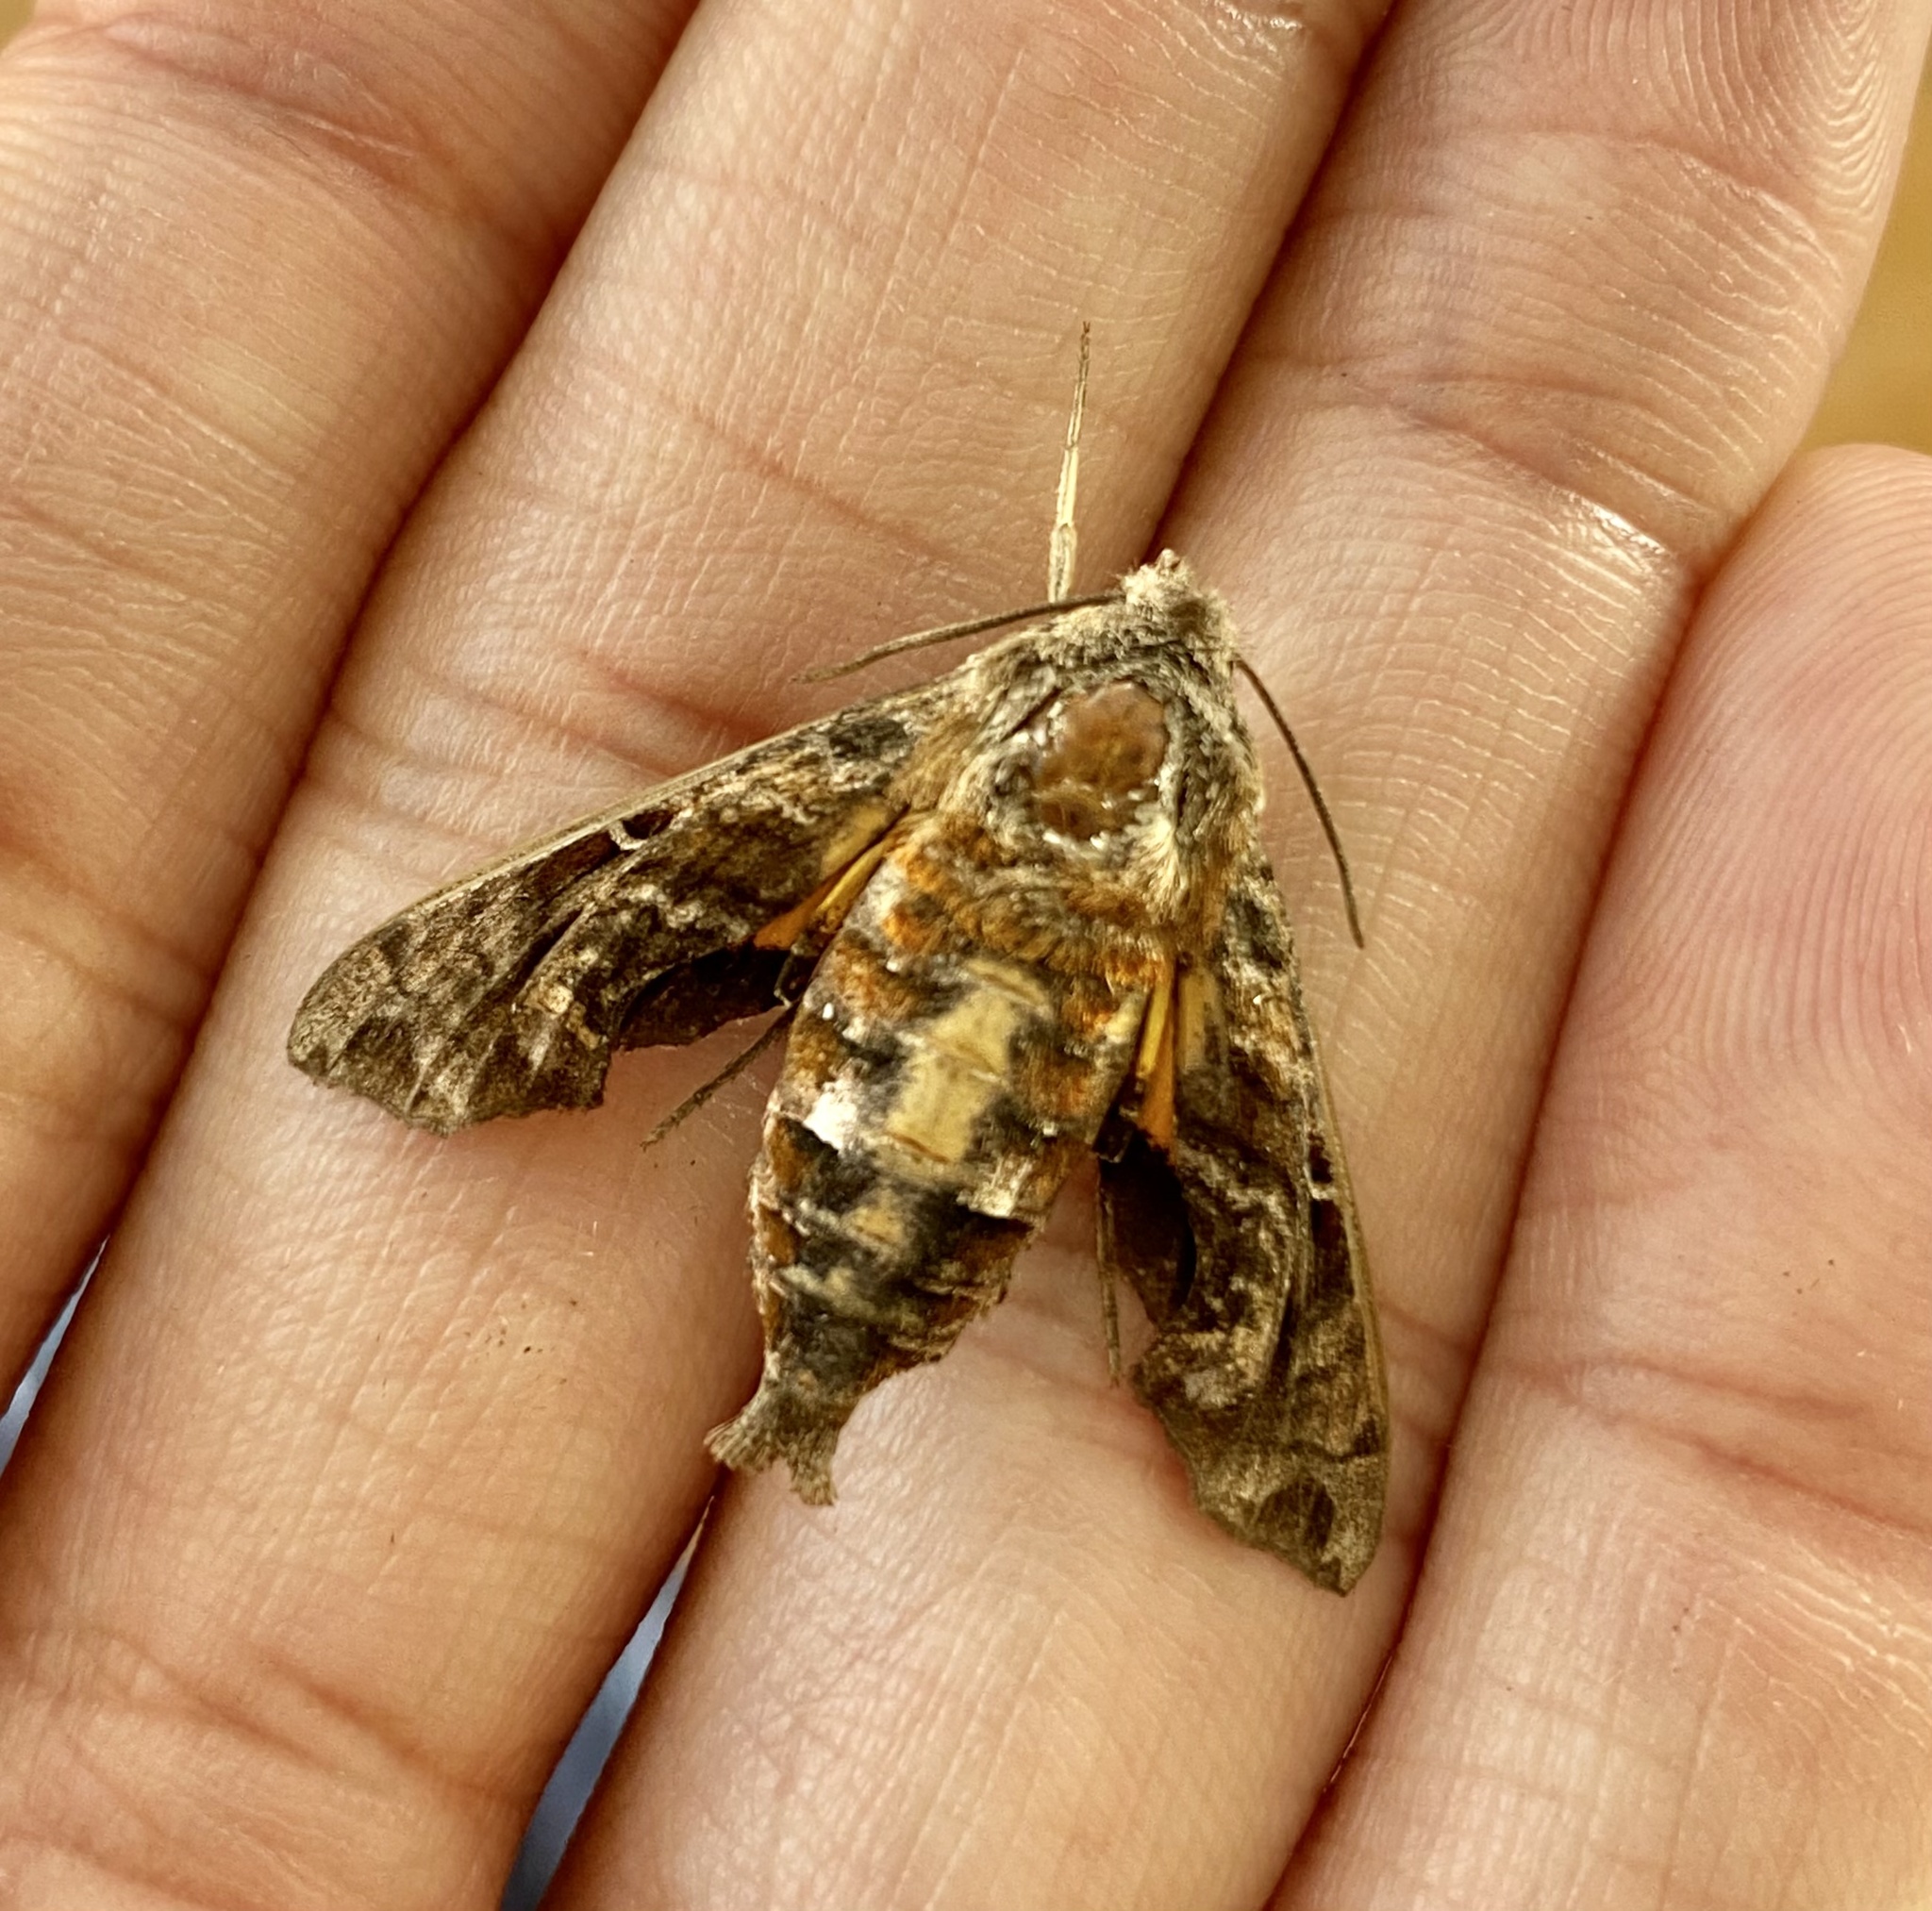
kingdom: Animalia
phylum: Arthropoda
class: Insecta
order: Lepidoptera
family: Sphingidae
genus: Neogurelca
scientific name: Neogurelca himachala
